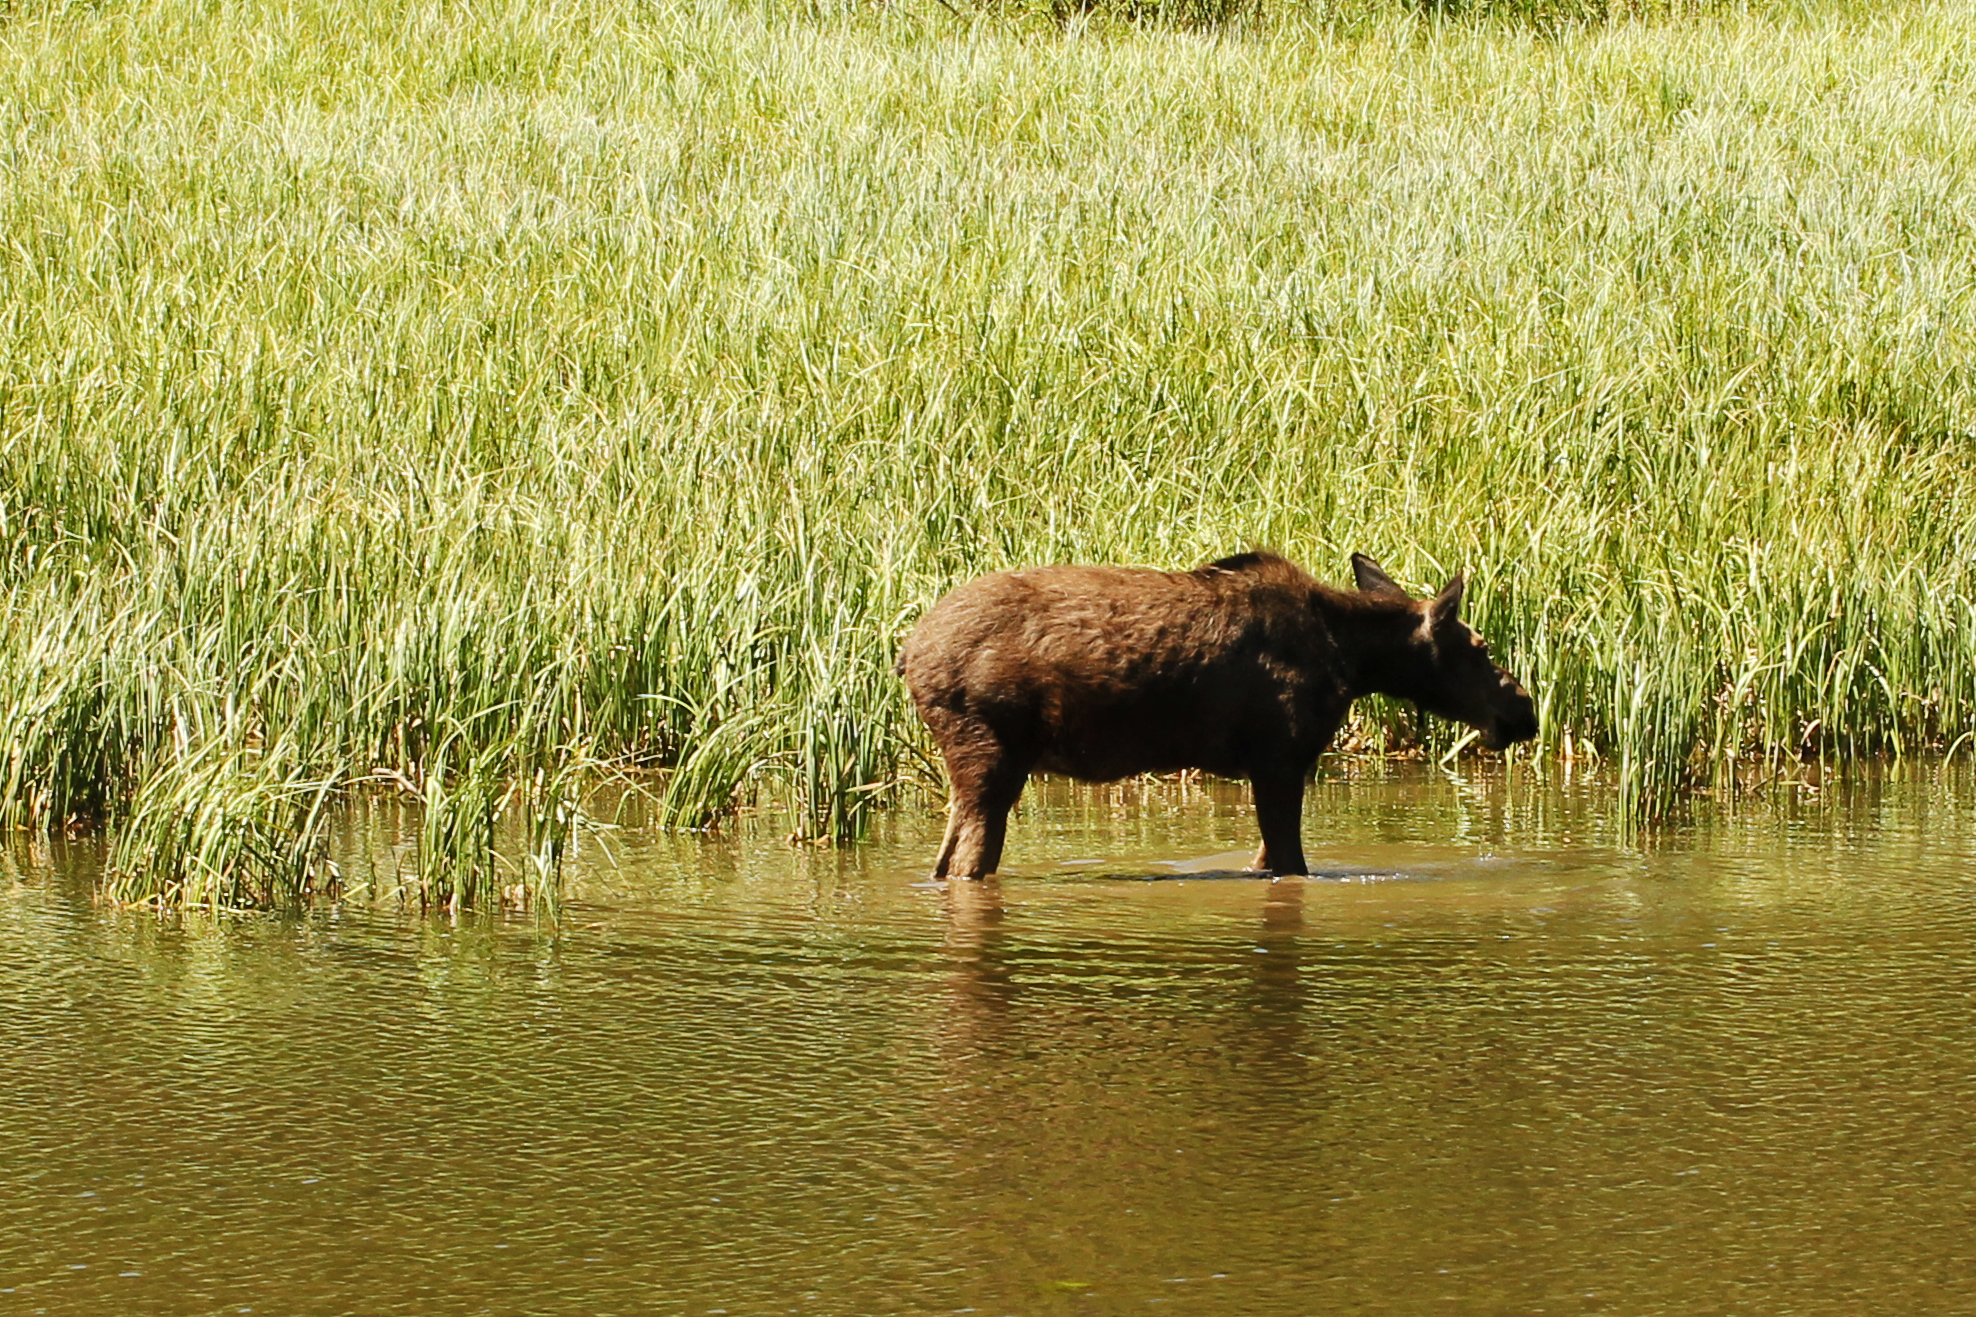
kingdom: Animalia
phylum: Chordata
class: Mammalia
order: Artiodactyla
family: Cervidae
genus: Alces
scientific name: Alces alces
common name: Moose
